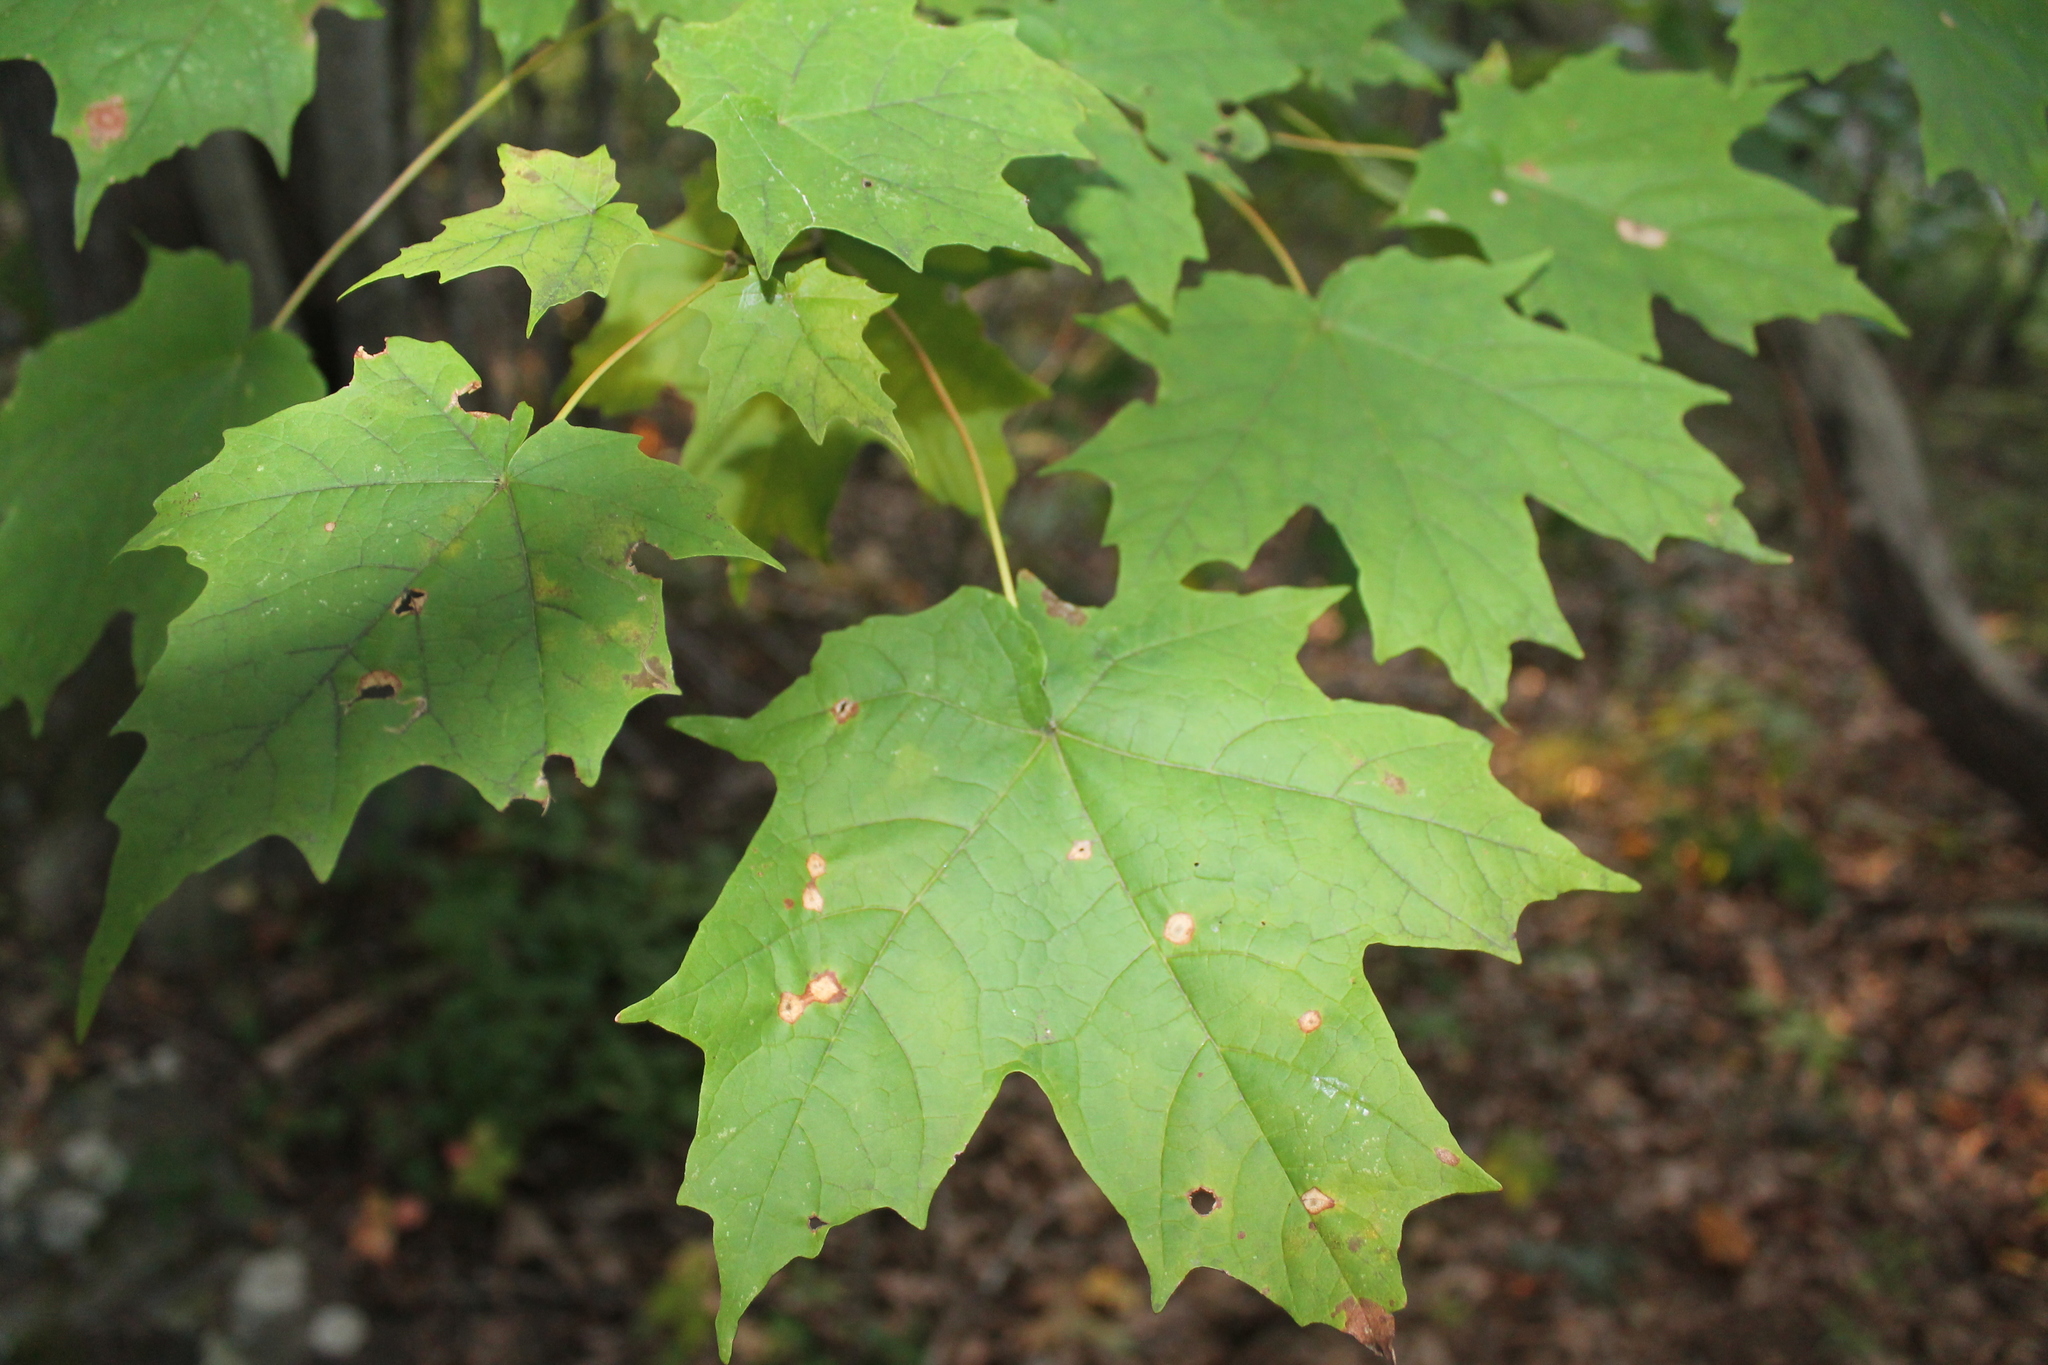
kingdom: Plantae
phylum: Tracheophyta
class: Magnoliopsida
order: Sapindales
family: Sapindaceae
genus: Acer
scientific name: Acer saccharum
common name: Sugar maple
